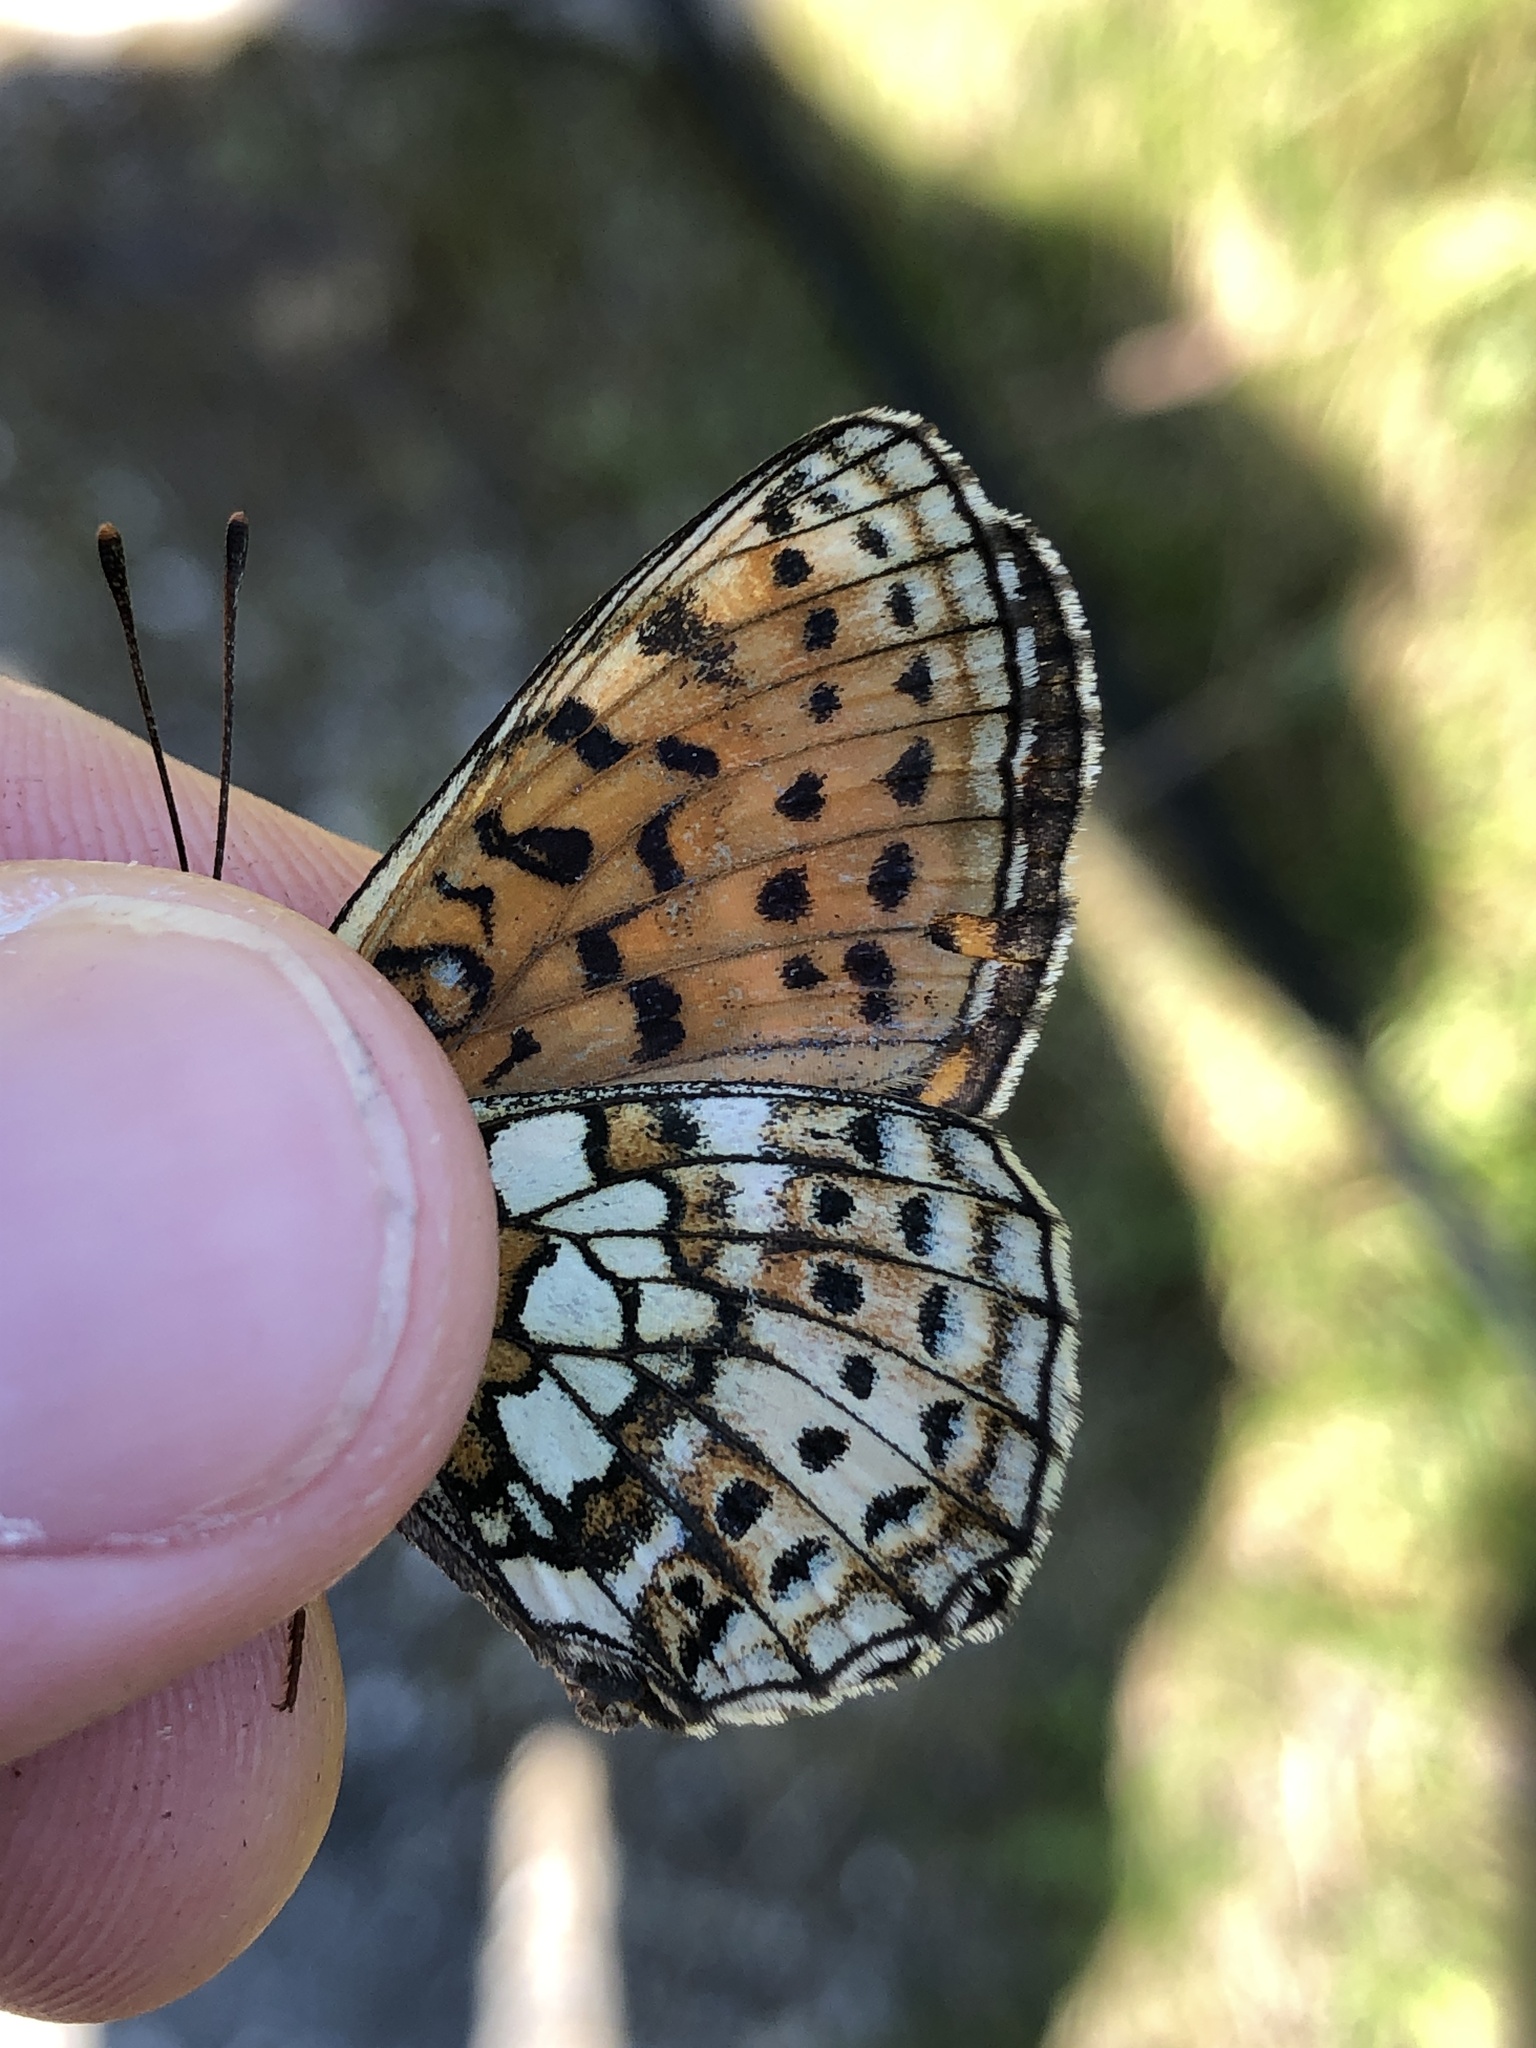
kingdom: Animalia
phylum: Arthropoda
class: Insecta
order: Lepidoptera
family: Nymphalidae
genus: Brenthis
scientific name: Brenthis hecate
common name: Twin-spot fritillary
